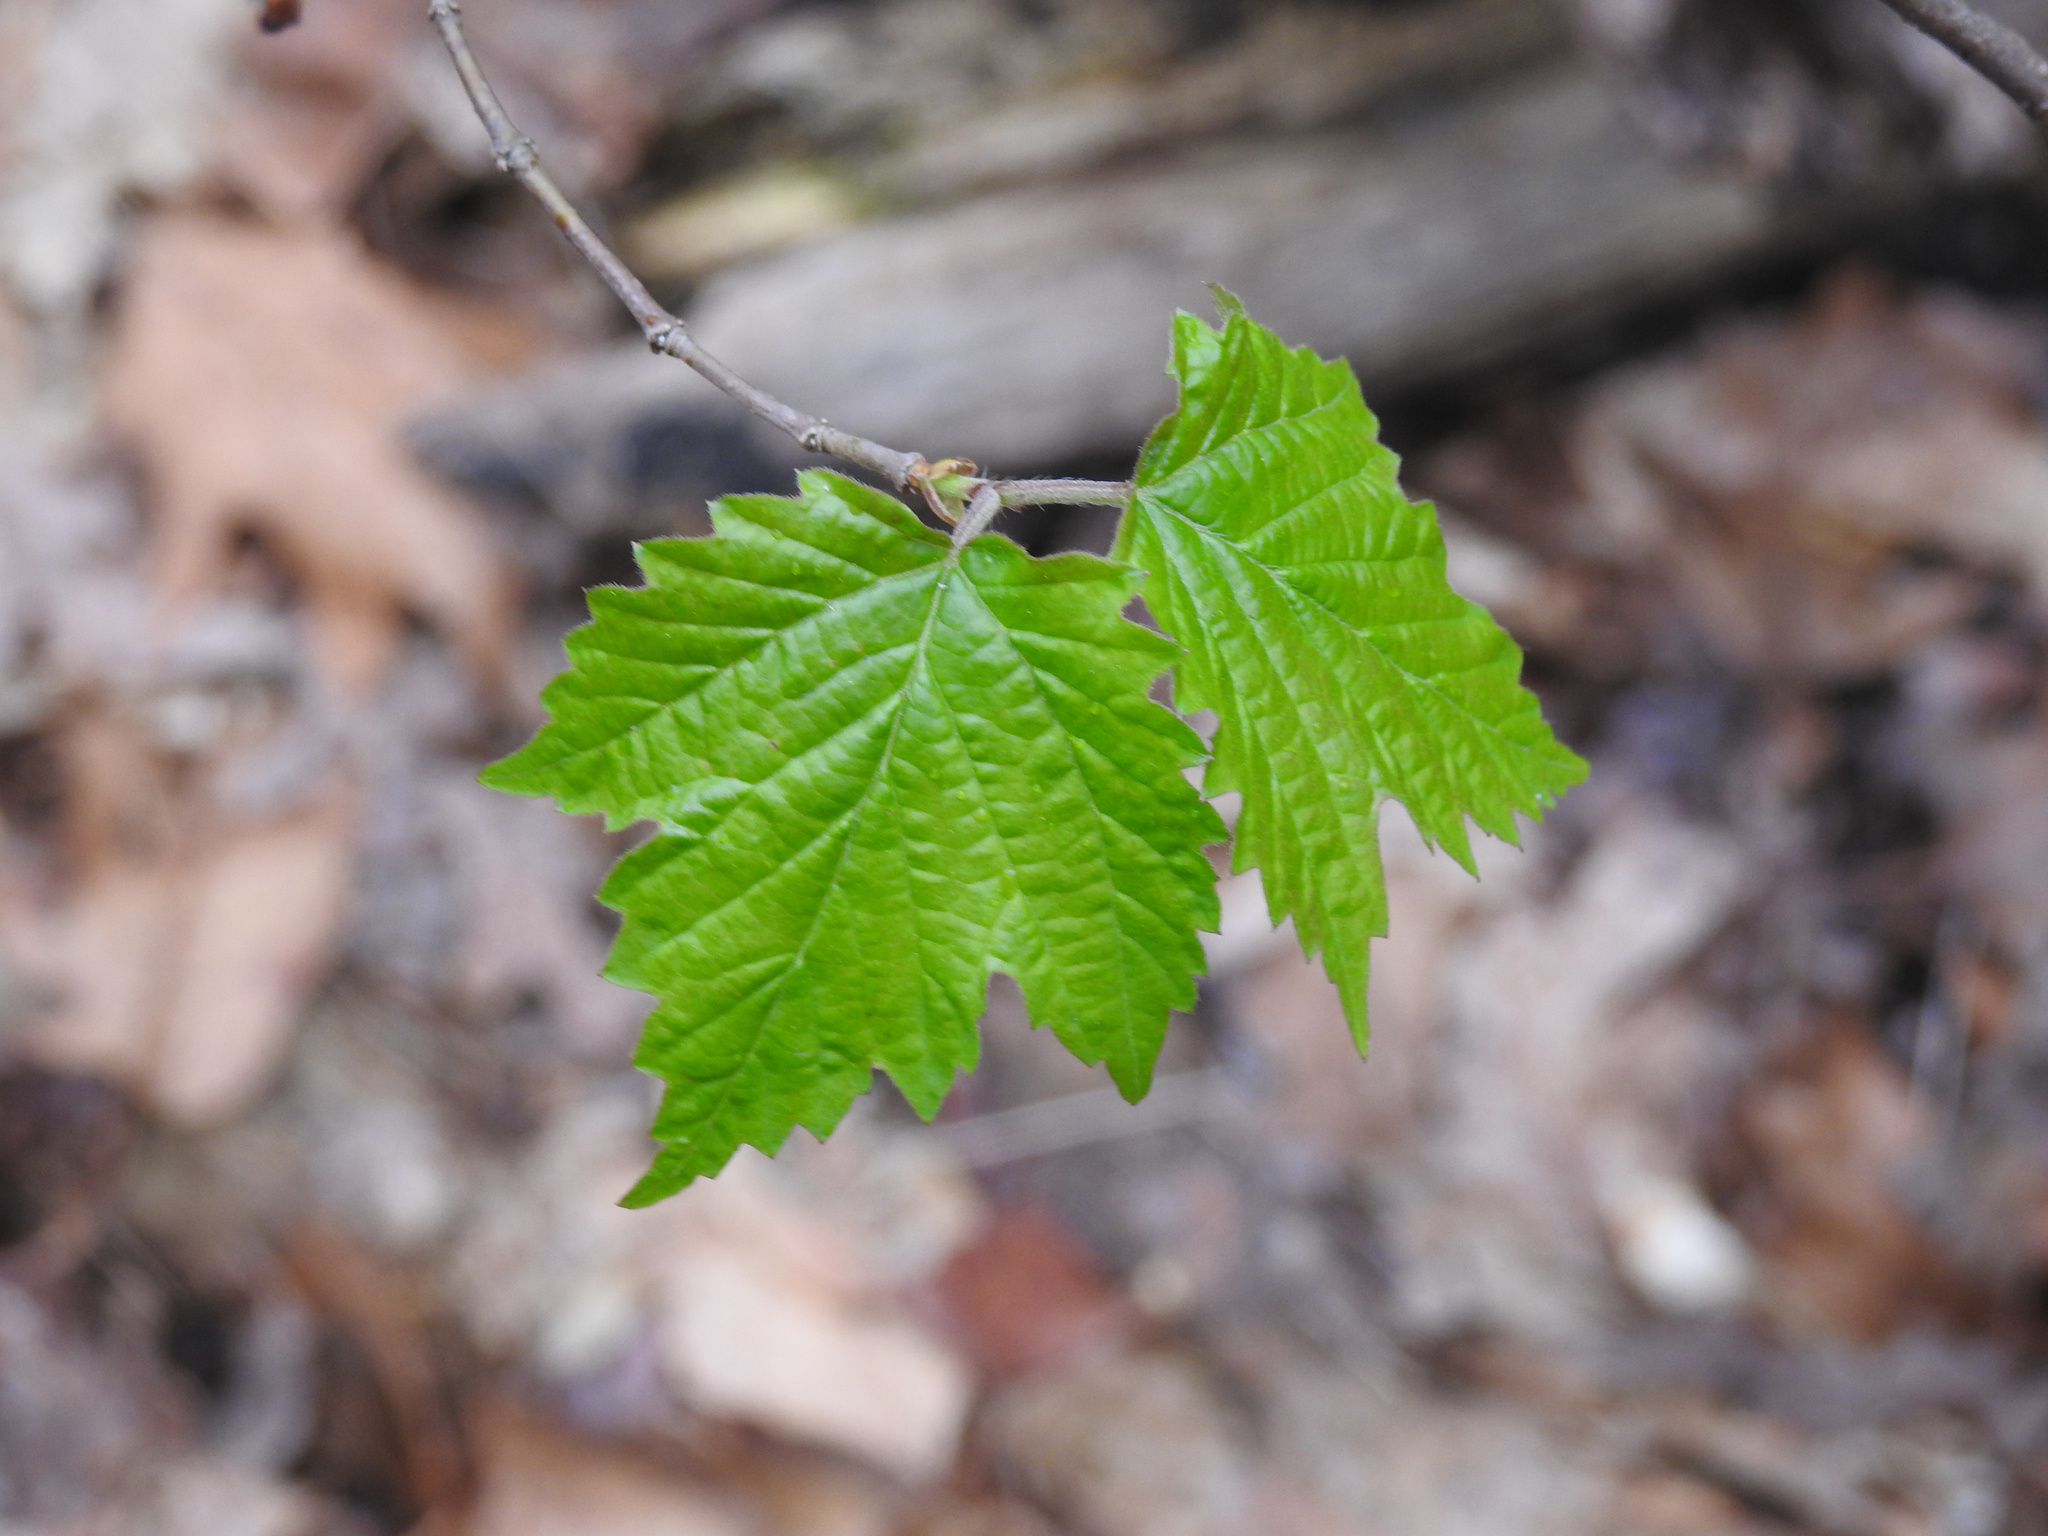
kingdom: Plantae
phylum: Tracheophyta
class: Magnoliopsida
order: Dipsacales
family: Viburnaceae
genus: Viburnum
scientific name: Viburnum acerifolium
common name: Dockmackie
